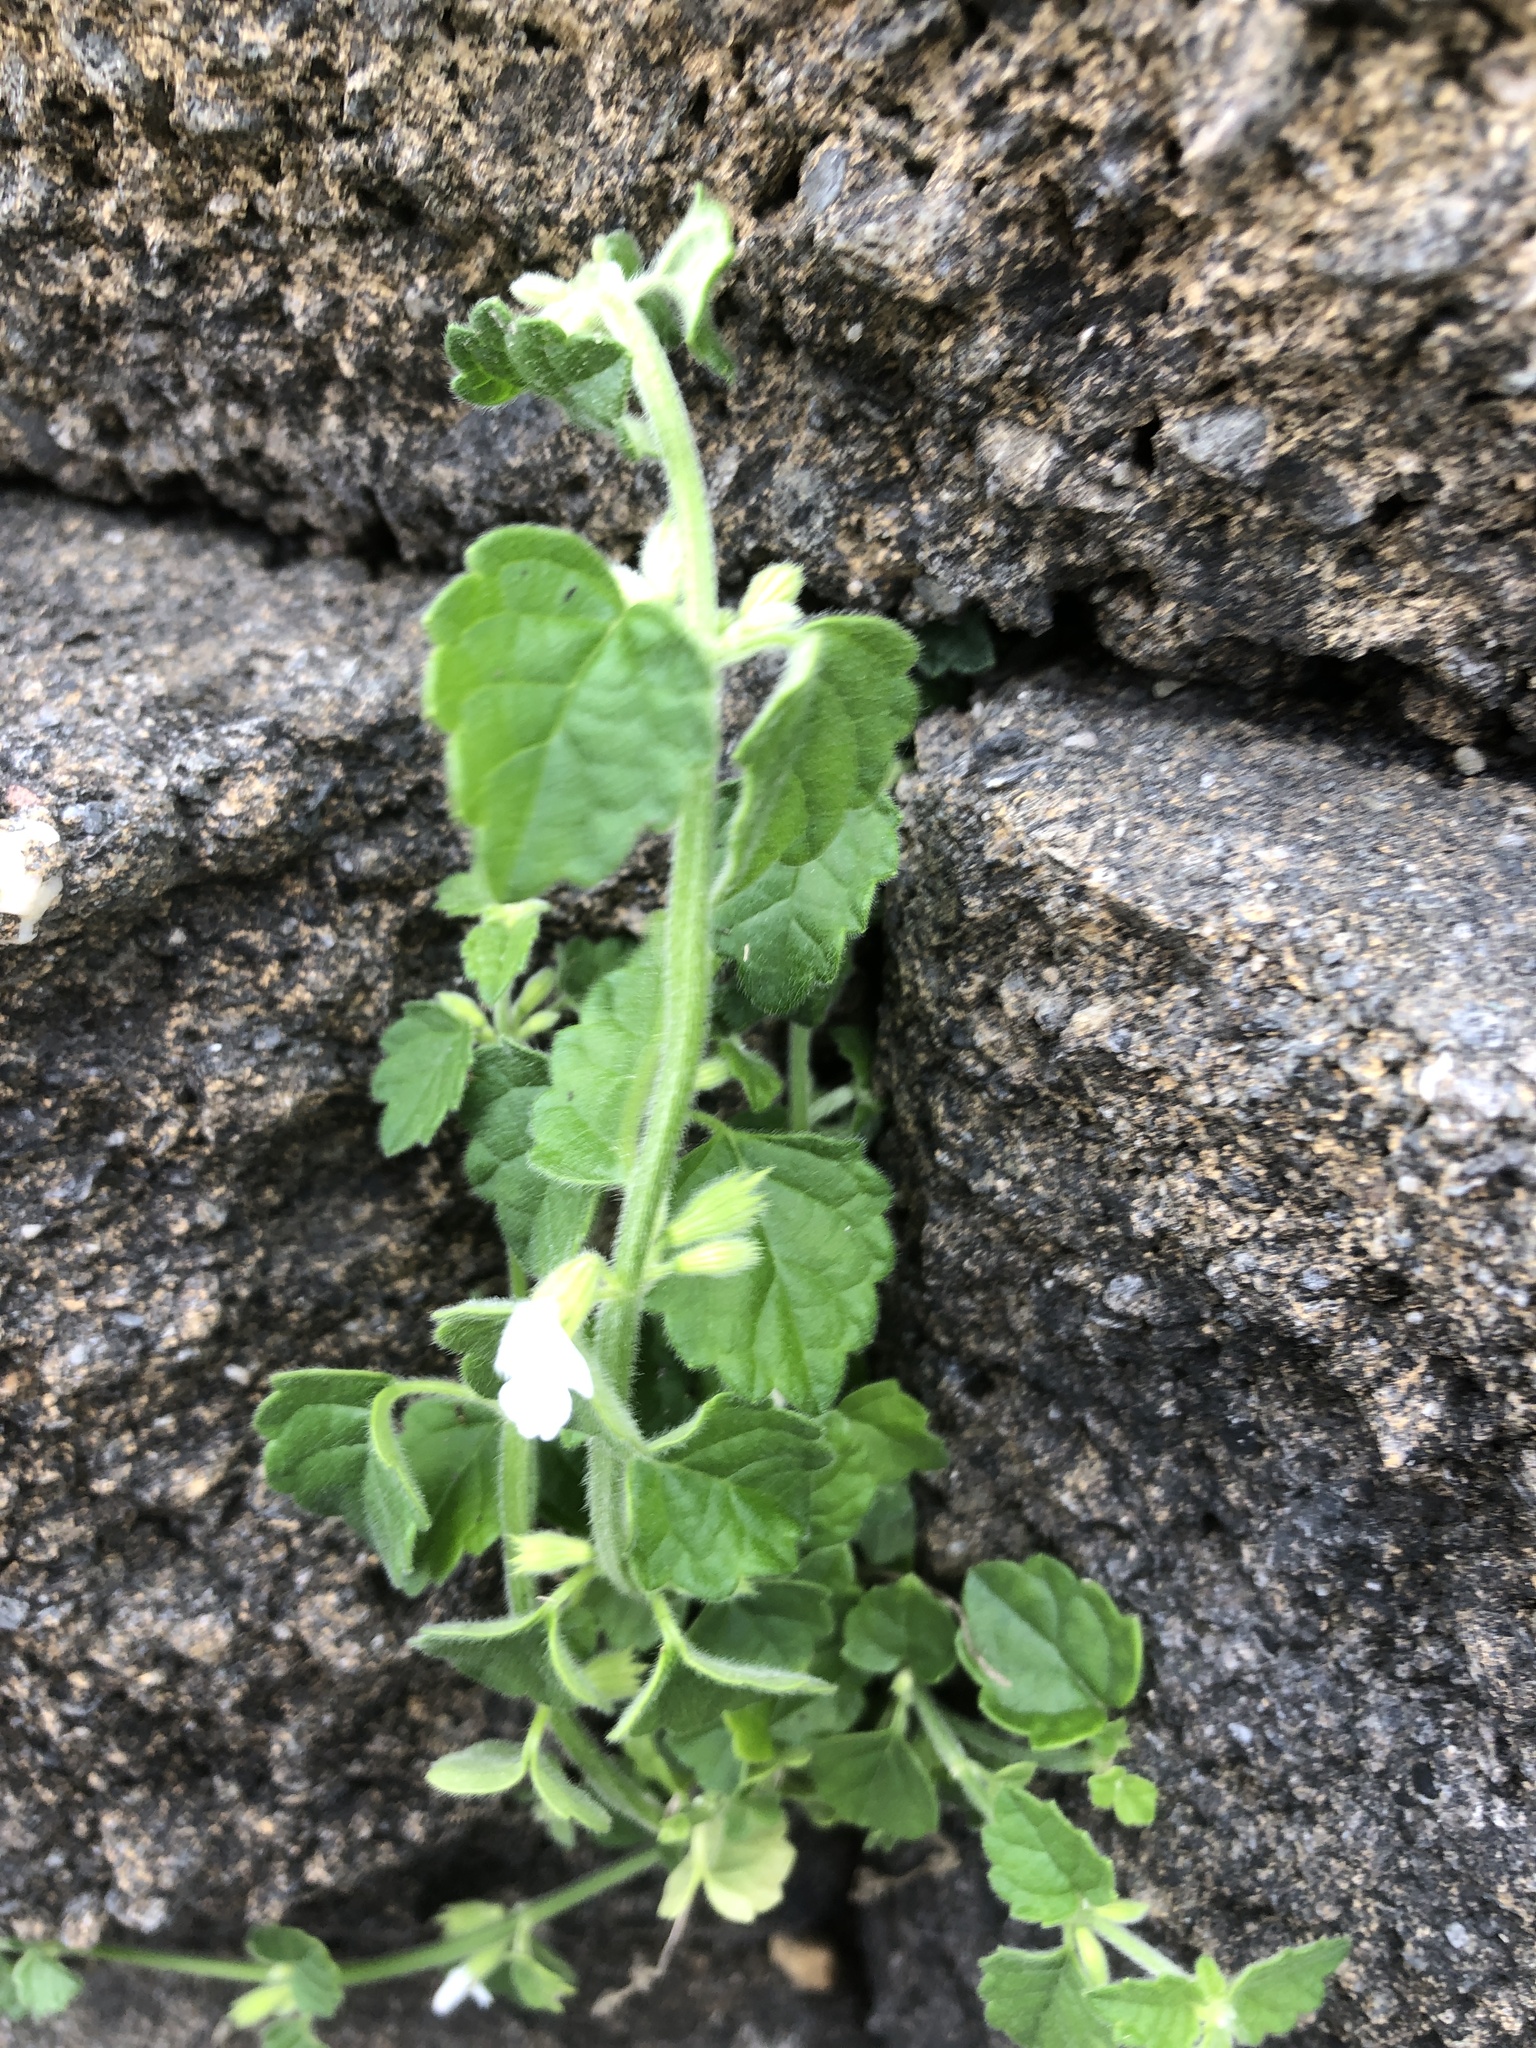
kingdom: Plantae
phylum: Tracheophyta
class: Magnoliopsida
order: Lamiales
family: Lamiaceae
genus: Leucas
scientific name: Leucas chinensis
